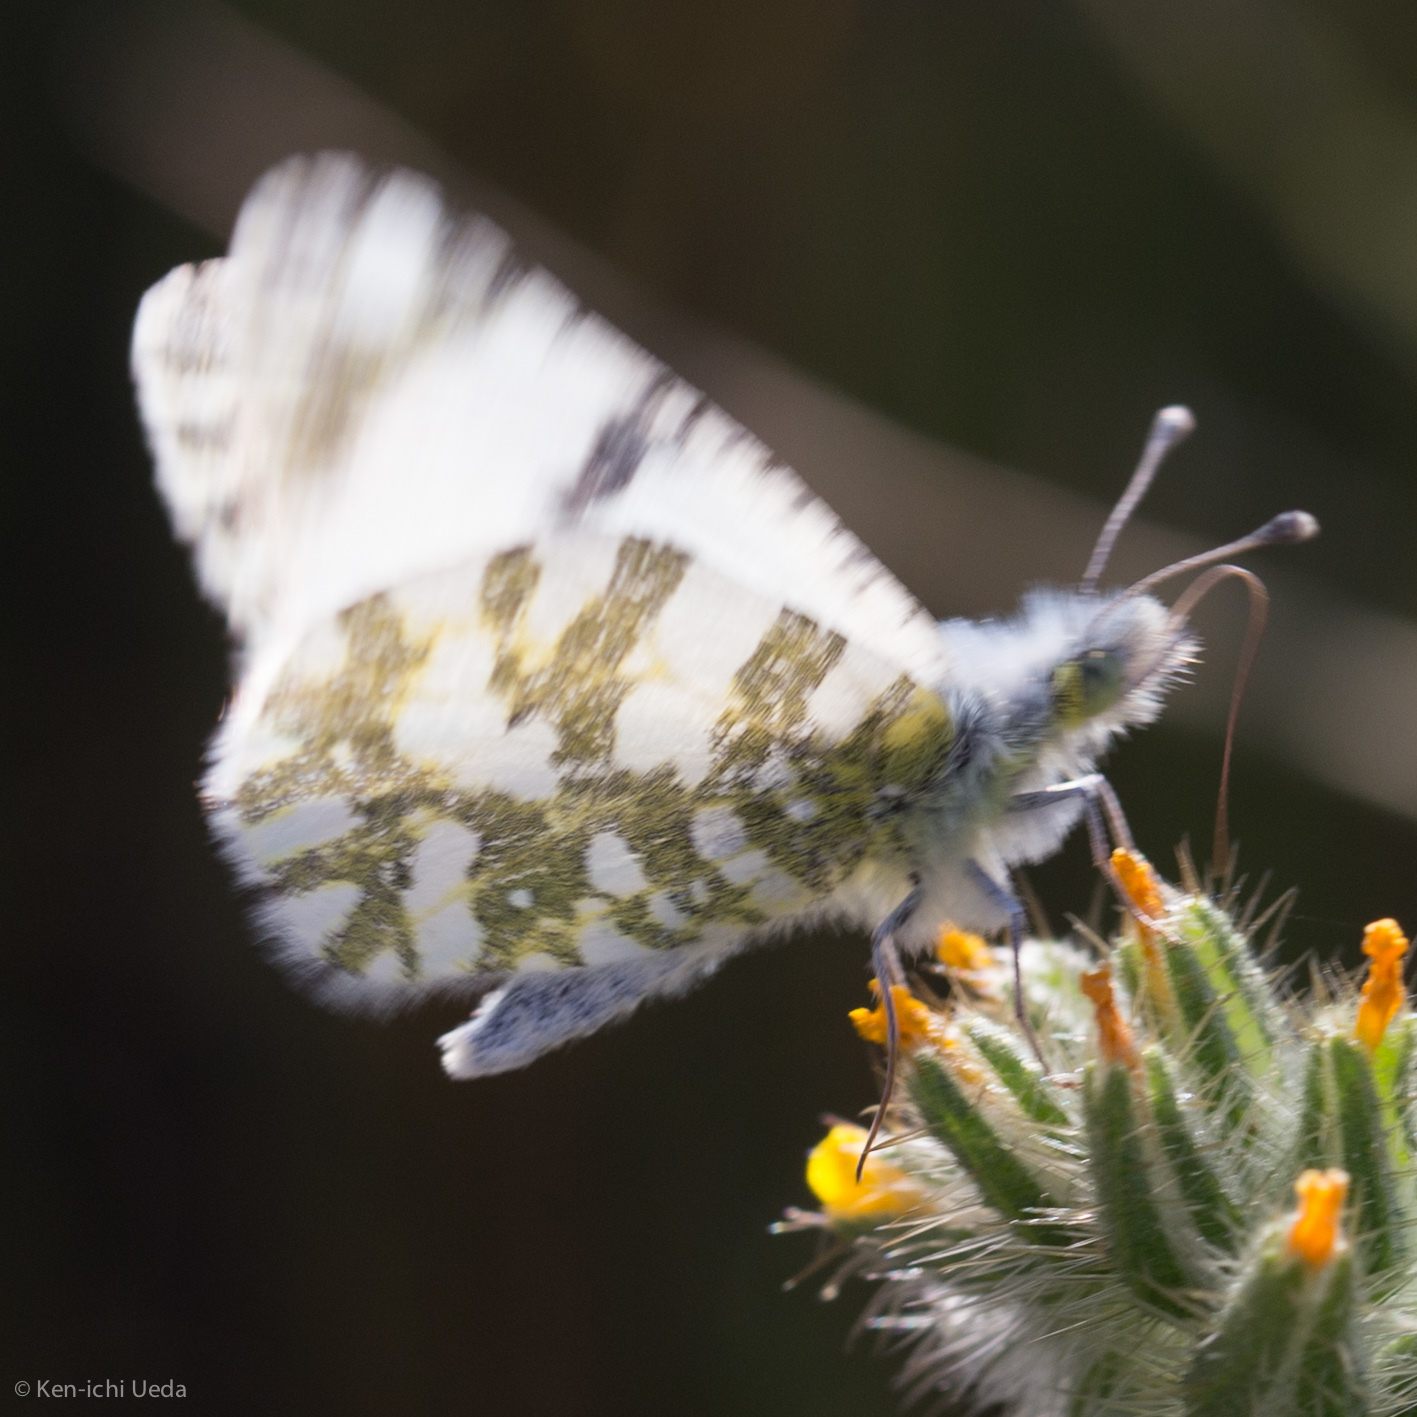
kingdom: Animalia
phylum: Arthropoda
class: Insecta
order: Lepidoptera
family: Pieridae
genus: Euchloe
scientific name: Euchloe lotta
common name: Desert marble
